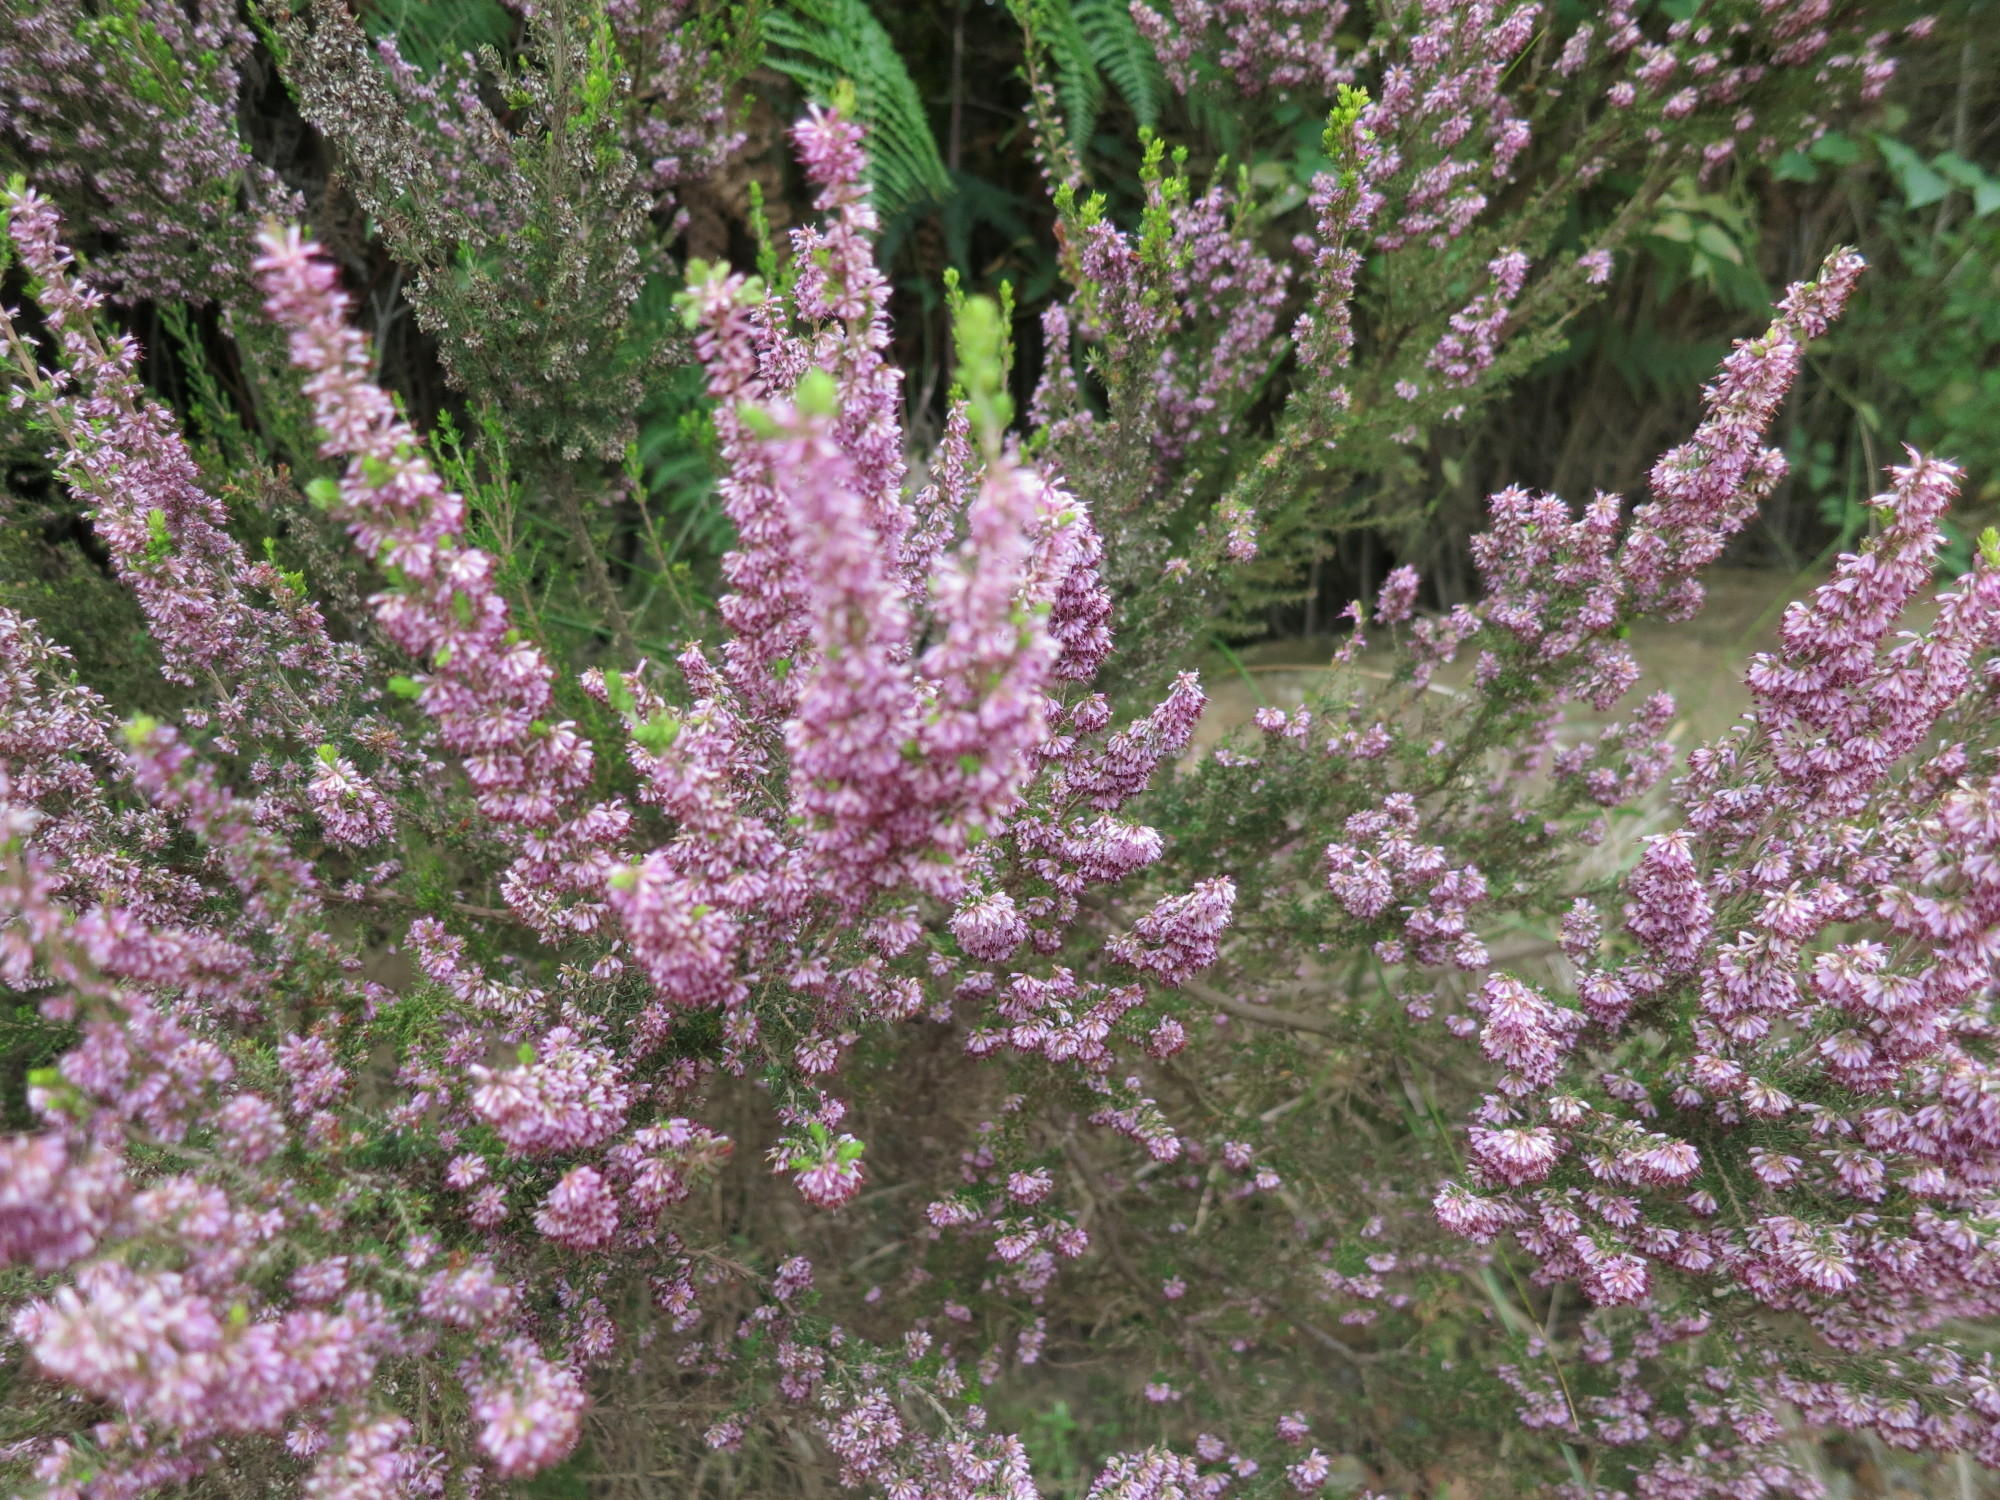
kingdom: Plantae
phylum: Tracheophyta
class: Magnoliopsida
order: Ericales
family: Ericaceae
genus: Erica
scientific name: Erica uberiflora
